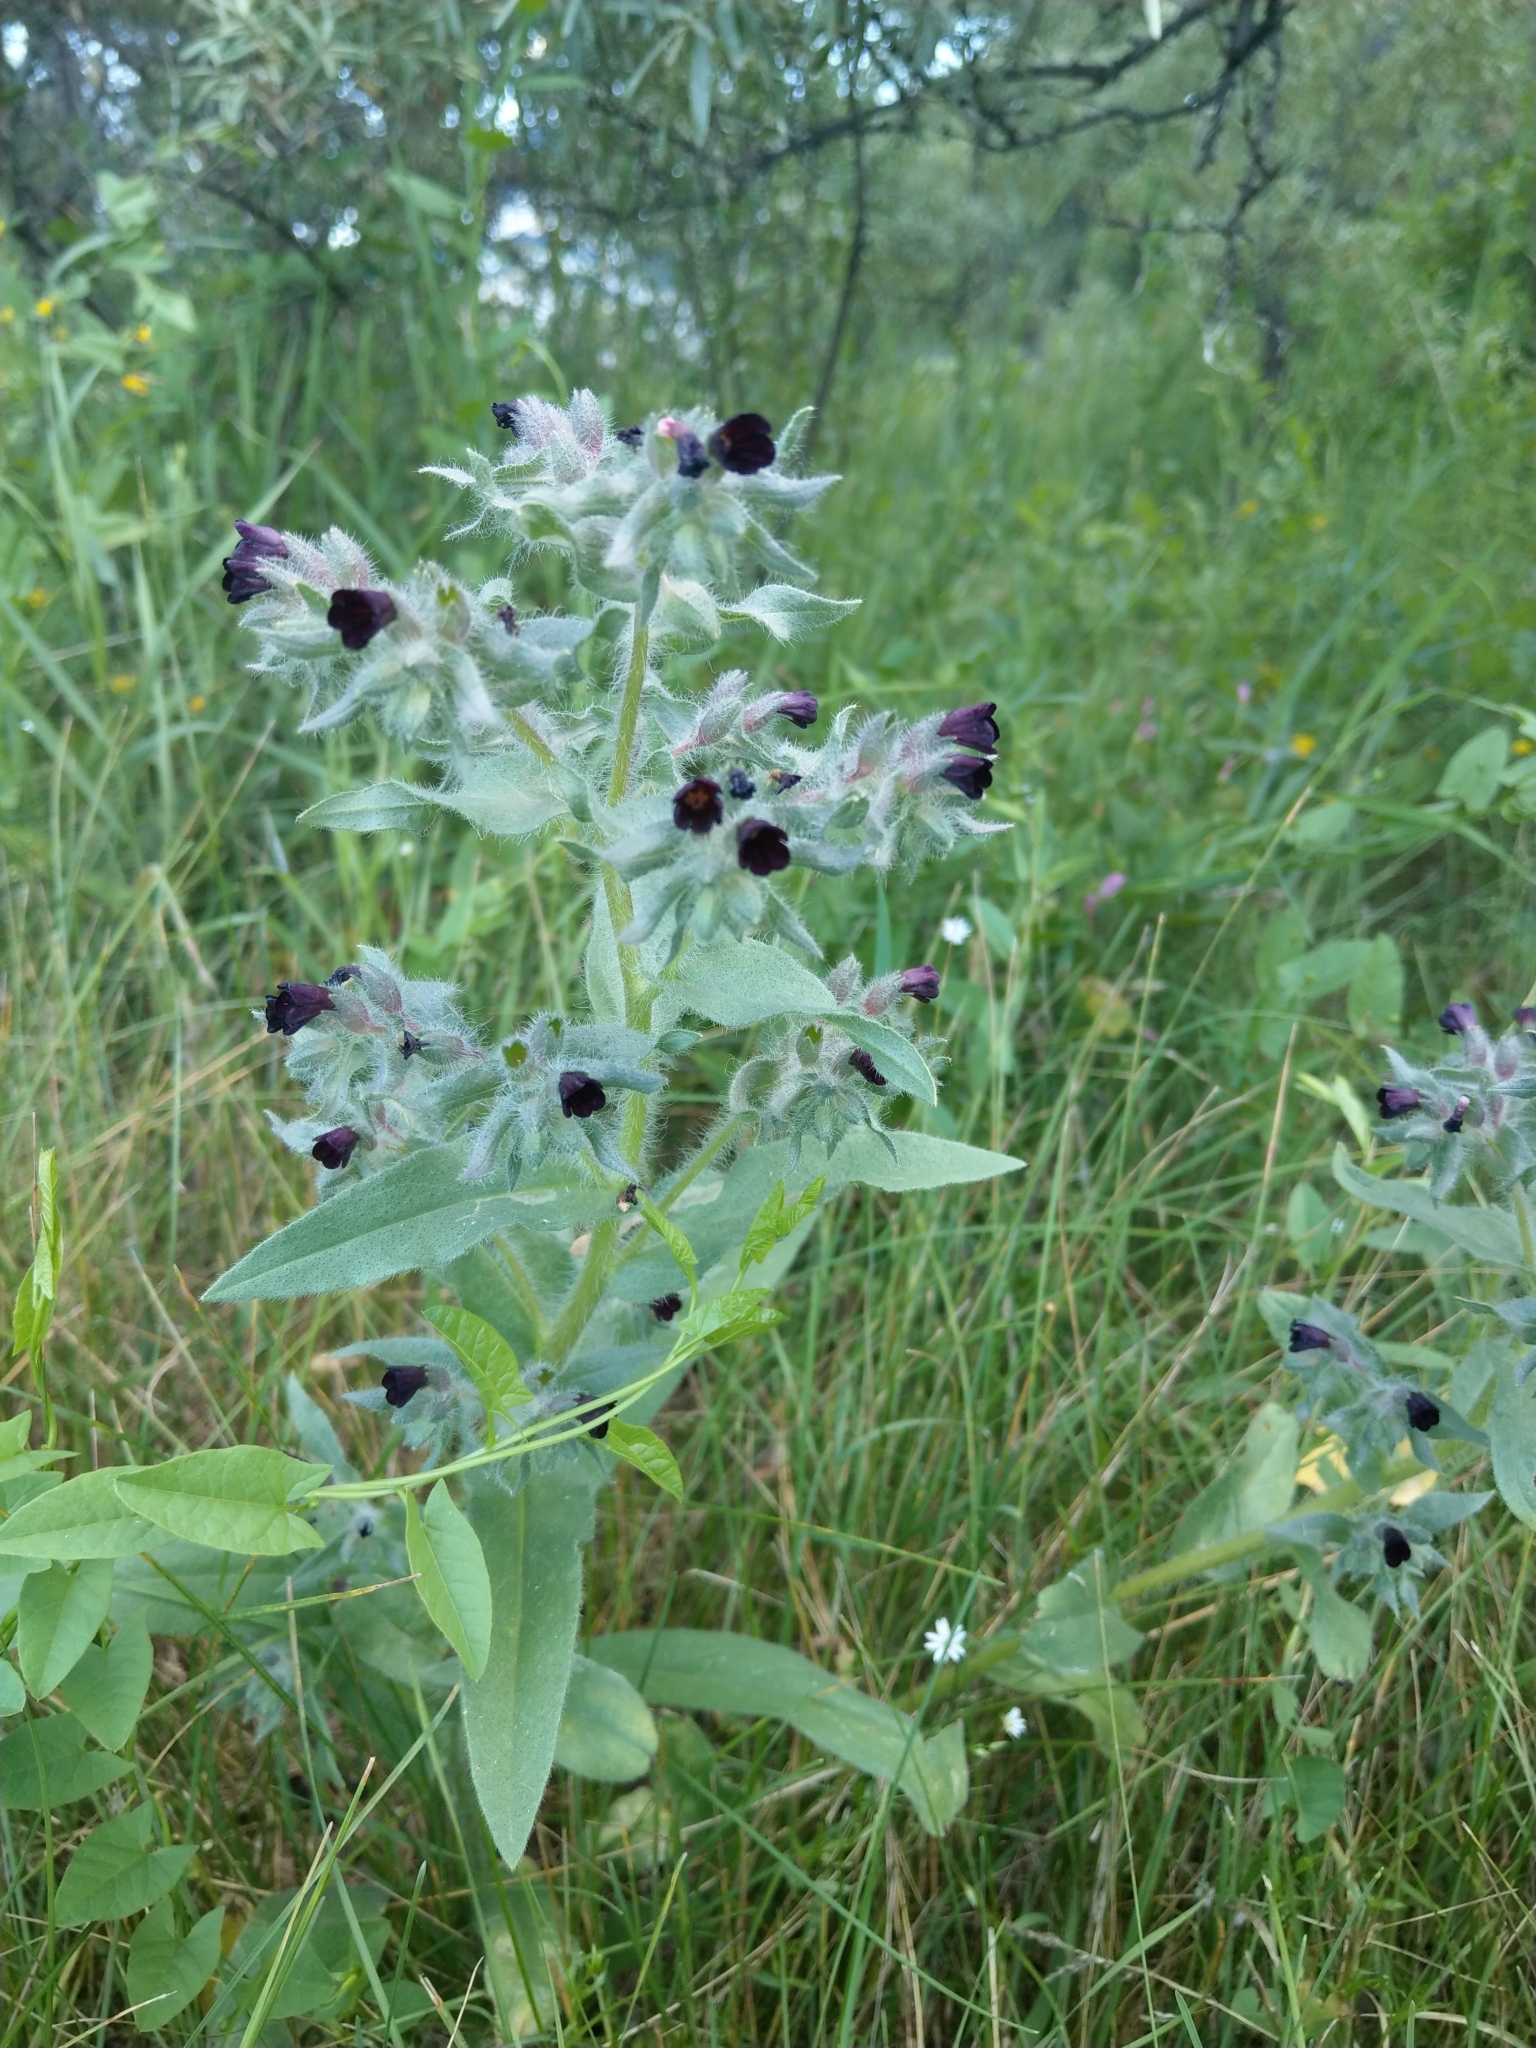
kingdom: Plantae
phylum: Tracheophyta
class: Magnoliopsida
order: Boraginales
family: Boraginaceae
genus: Nonea
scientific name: Nonea pulla
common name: Brown nonea
